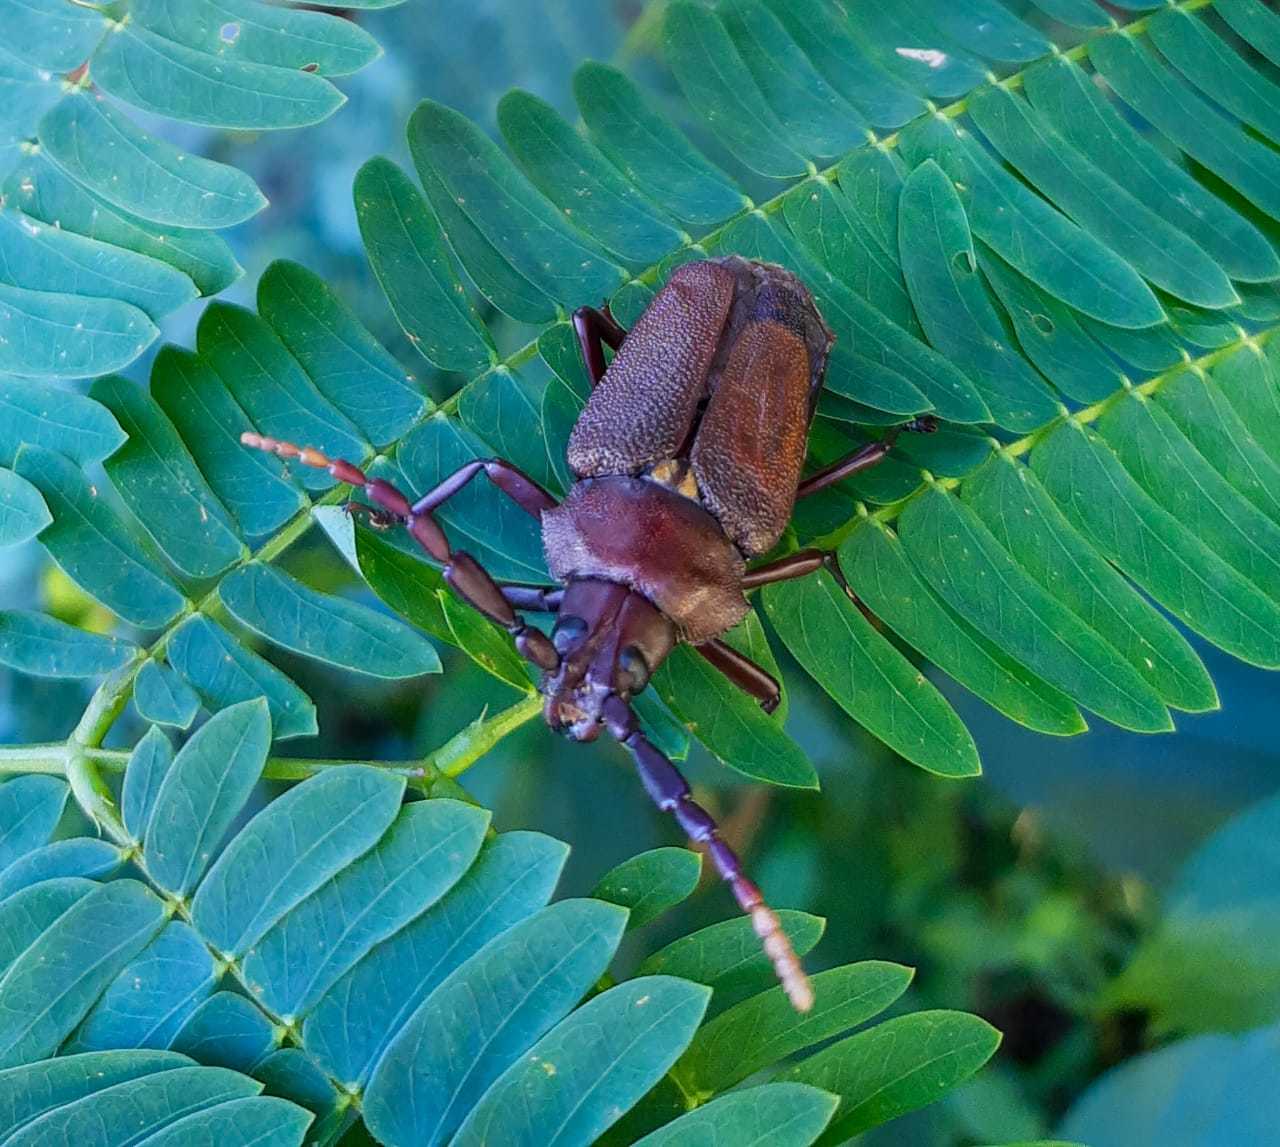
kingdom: Animalia
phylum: Arthropoda
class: Insecta
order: Coleoptera
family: Cerambycidae
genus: Praemallaspis
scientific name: Praemallaspis leucaspis
